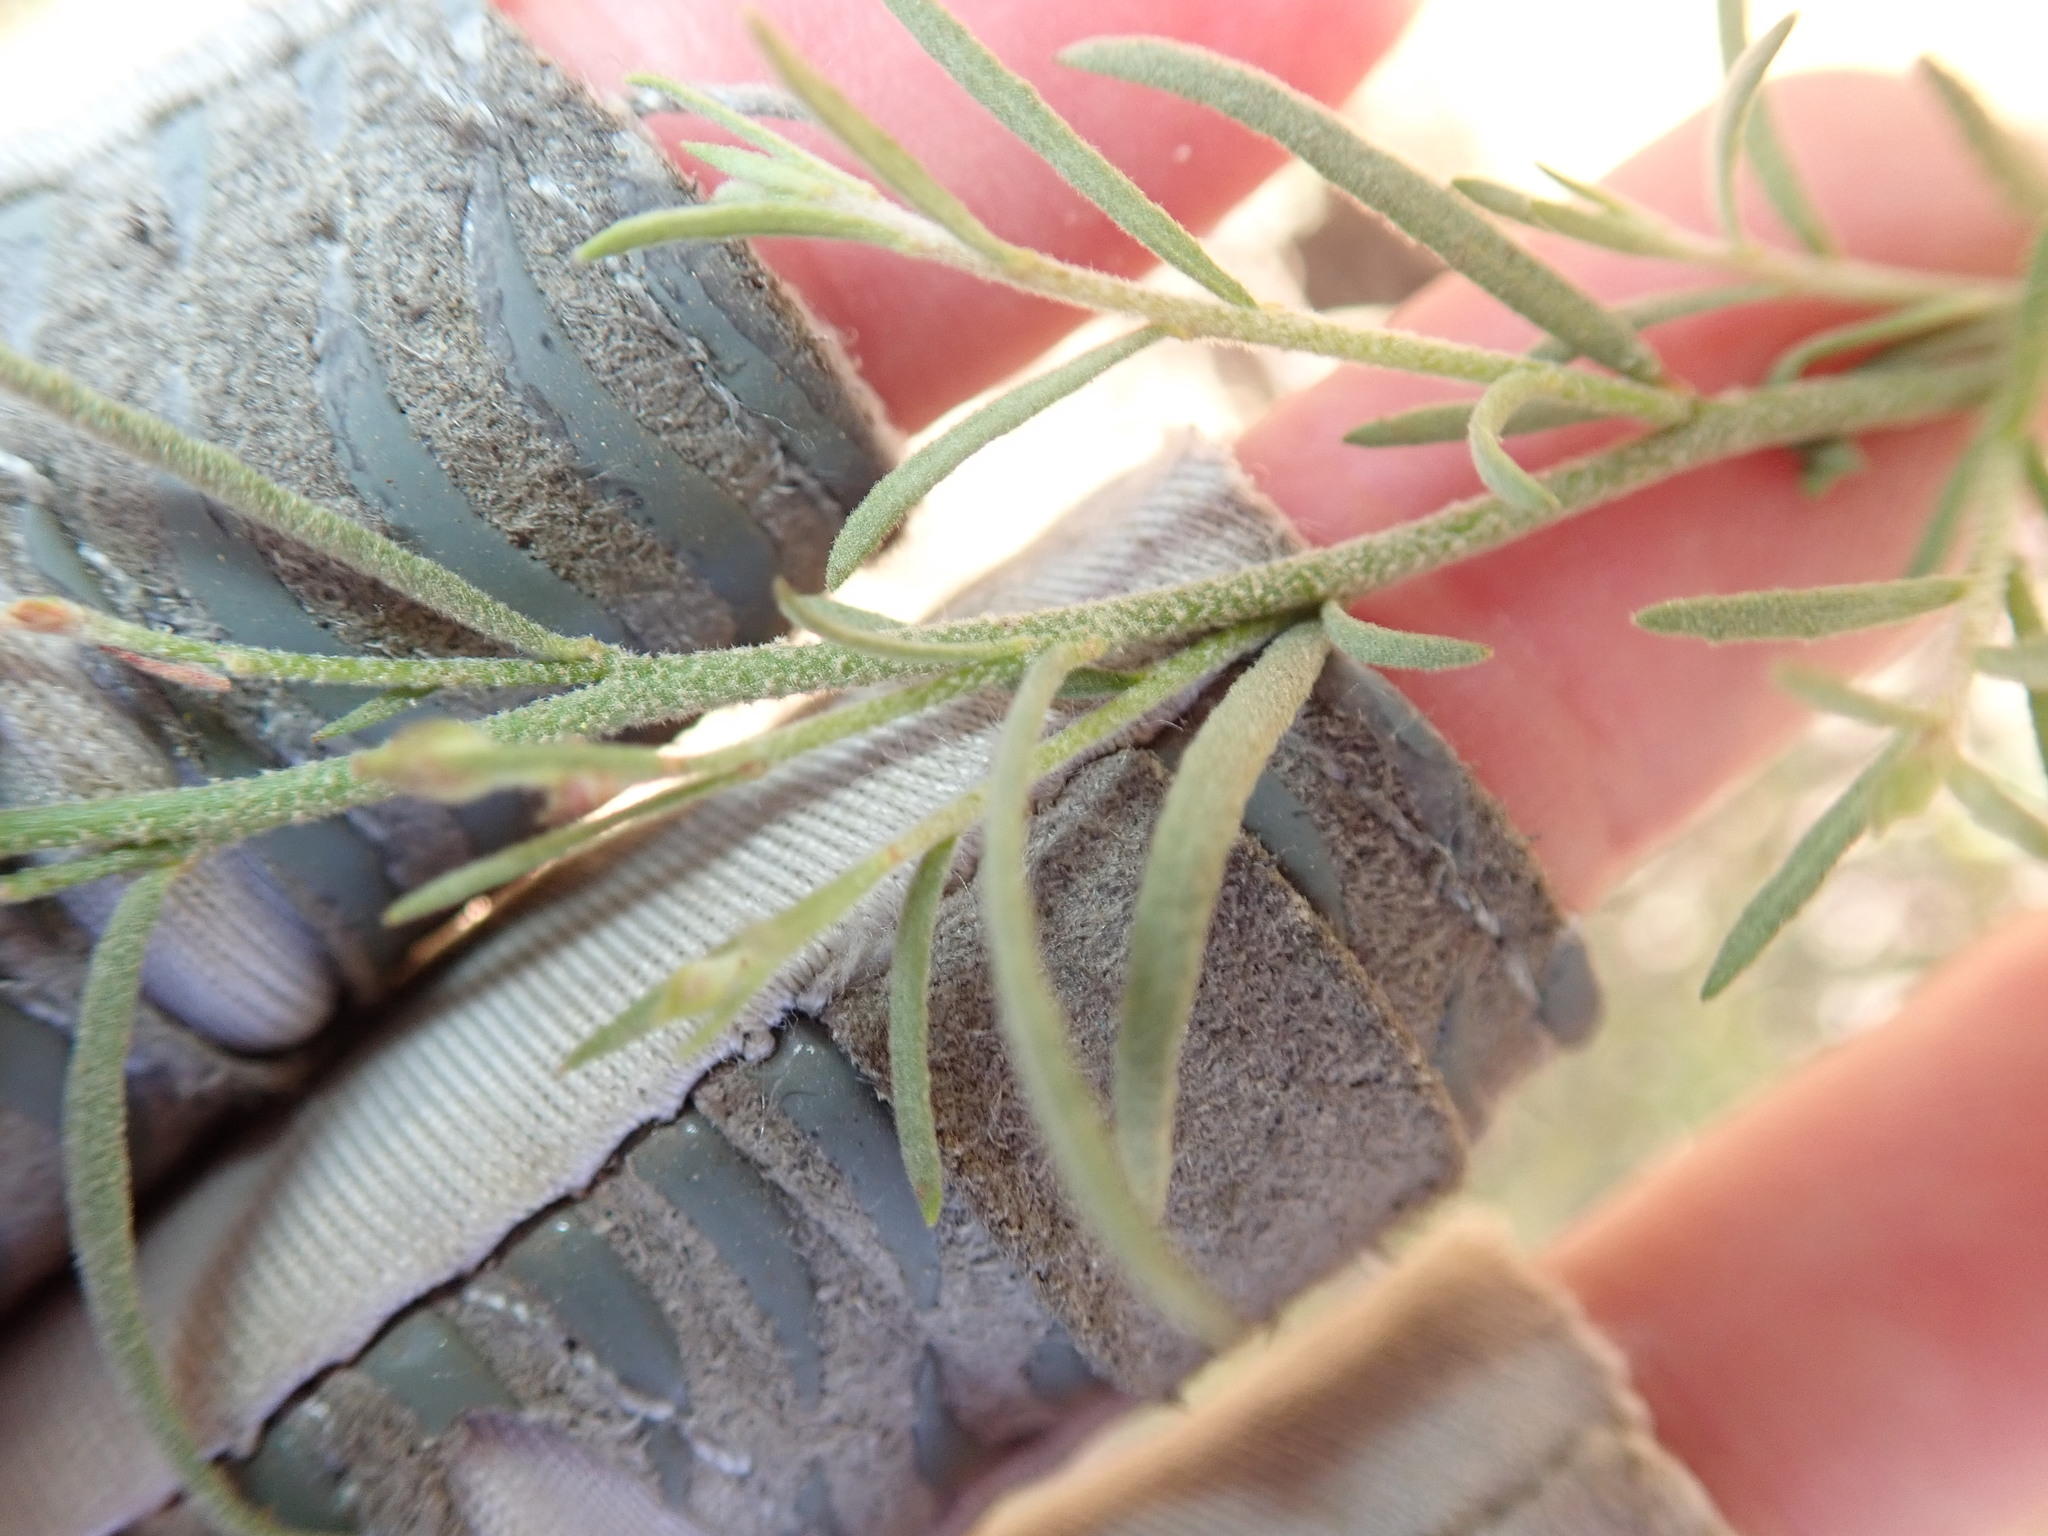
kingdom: Plantae
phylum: Tracheophyta
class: Magnoliopsida
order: Malvales
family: Cistaceae
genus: Crocanthemum
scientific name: Crocanthemum scoparium
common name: Broom-rose
